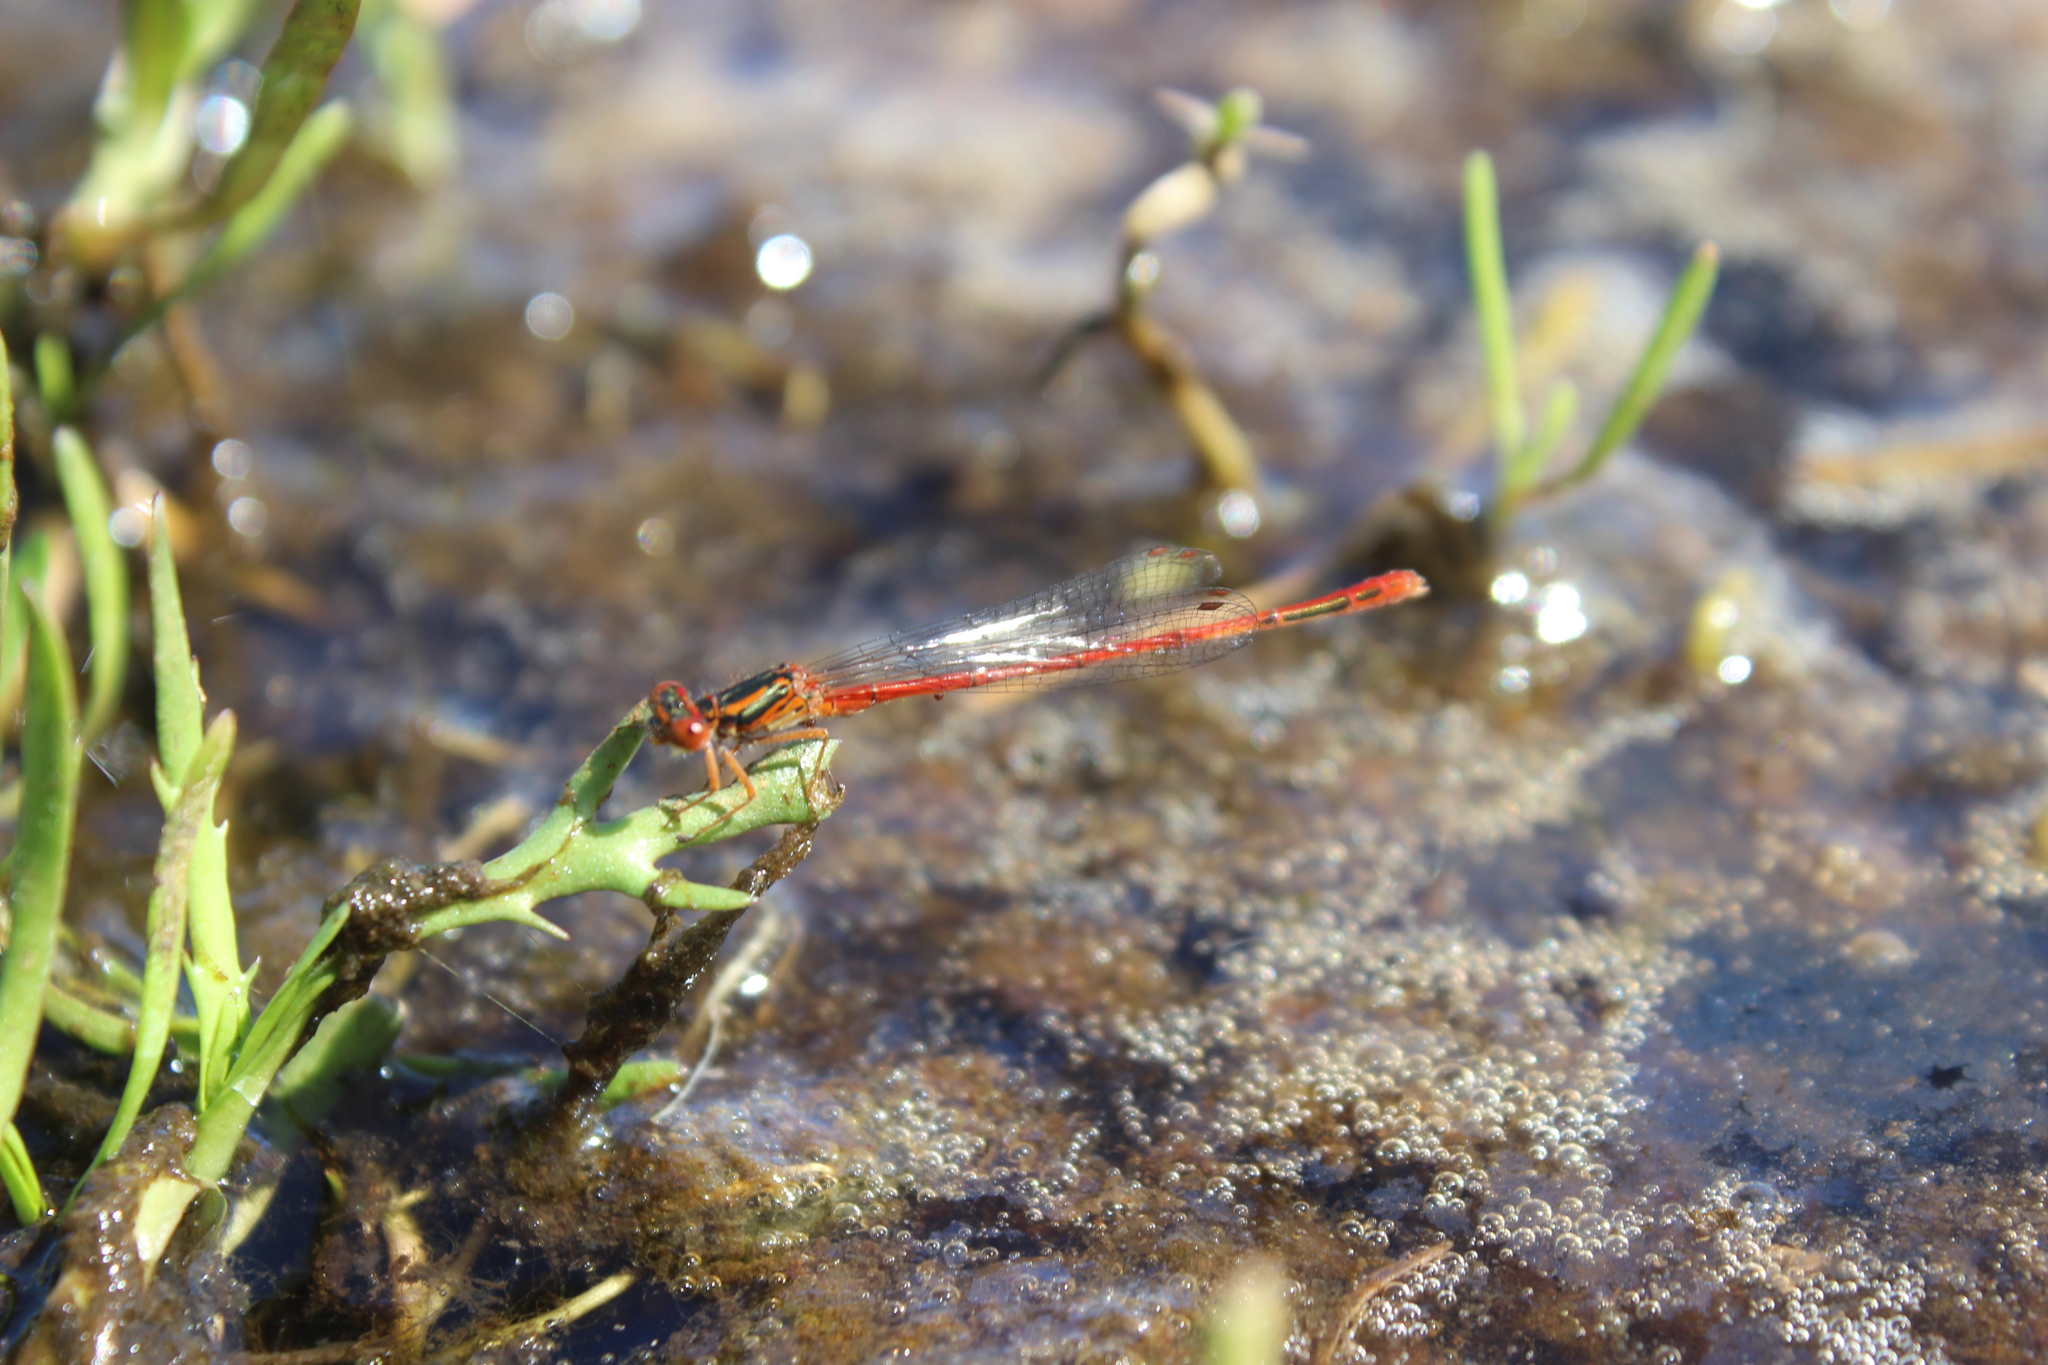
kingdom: Animalia
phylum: Arthropoda
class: Insecta
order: Odonata
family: Coenagrionidae
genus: Xanthocnemis
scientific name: Xanthocnemis zealandica
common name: Common redcoat damselfly
